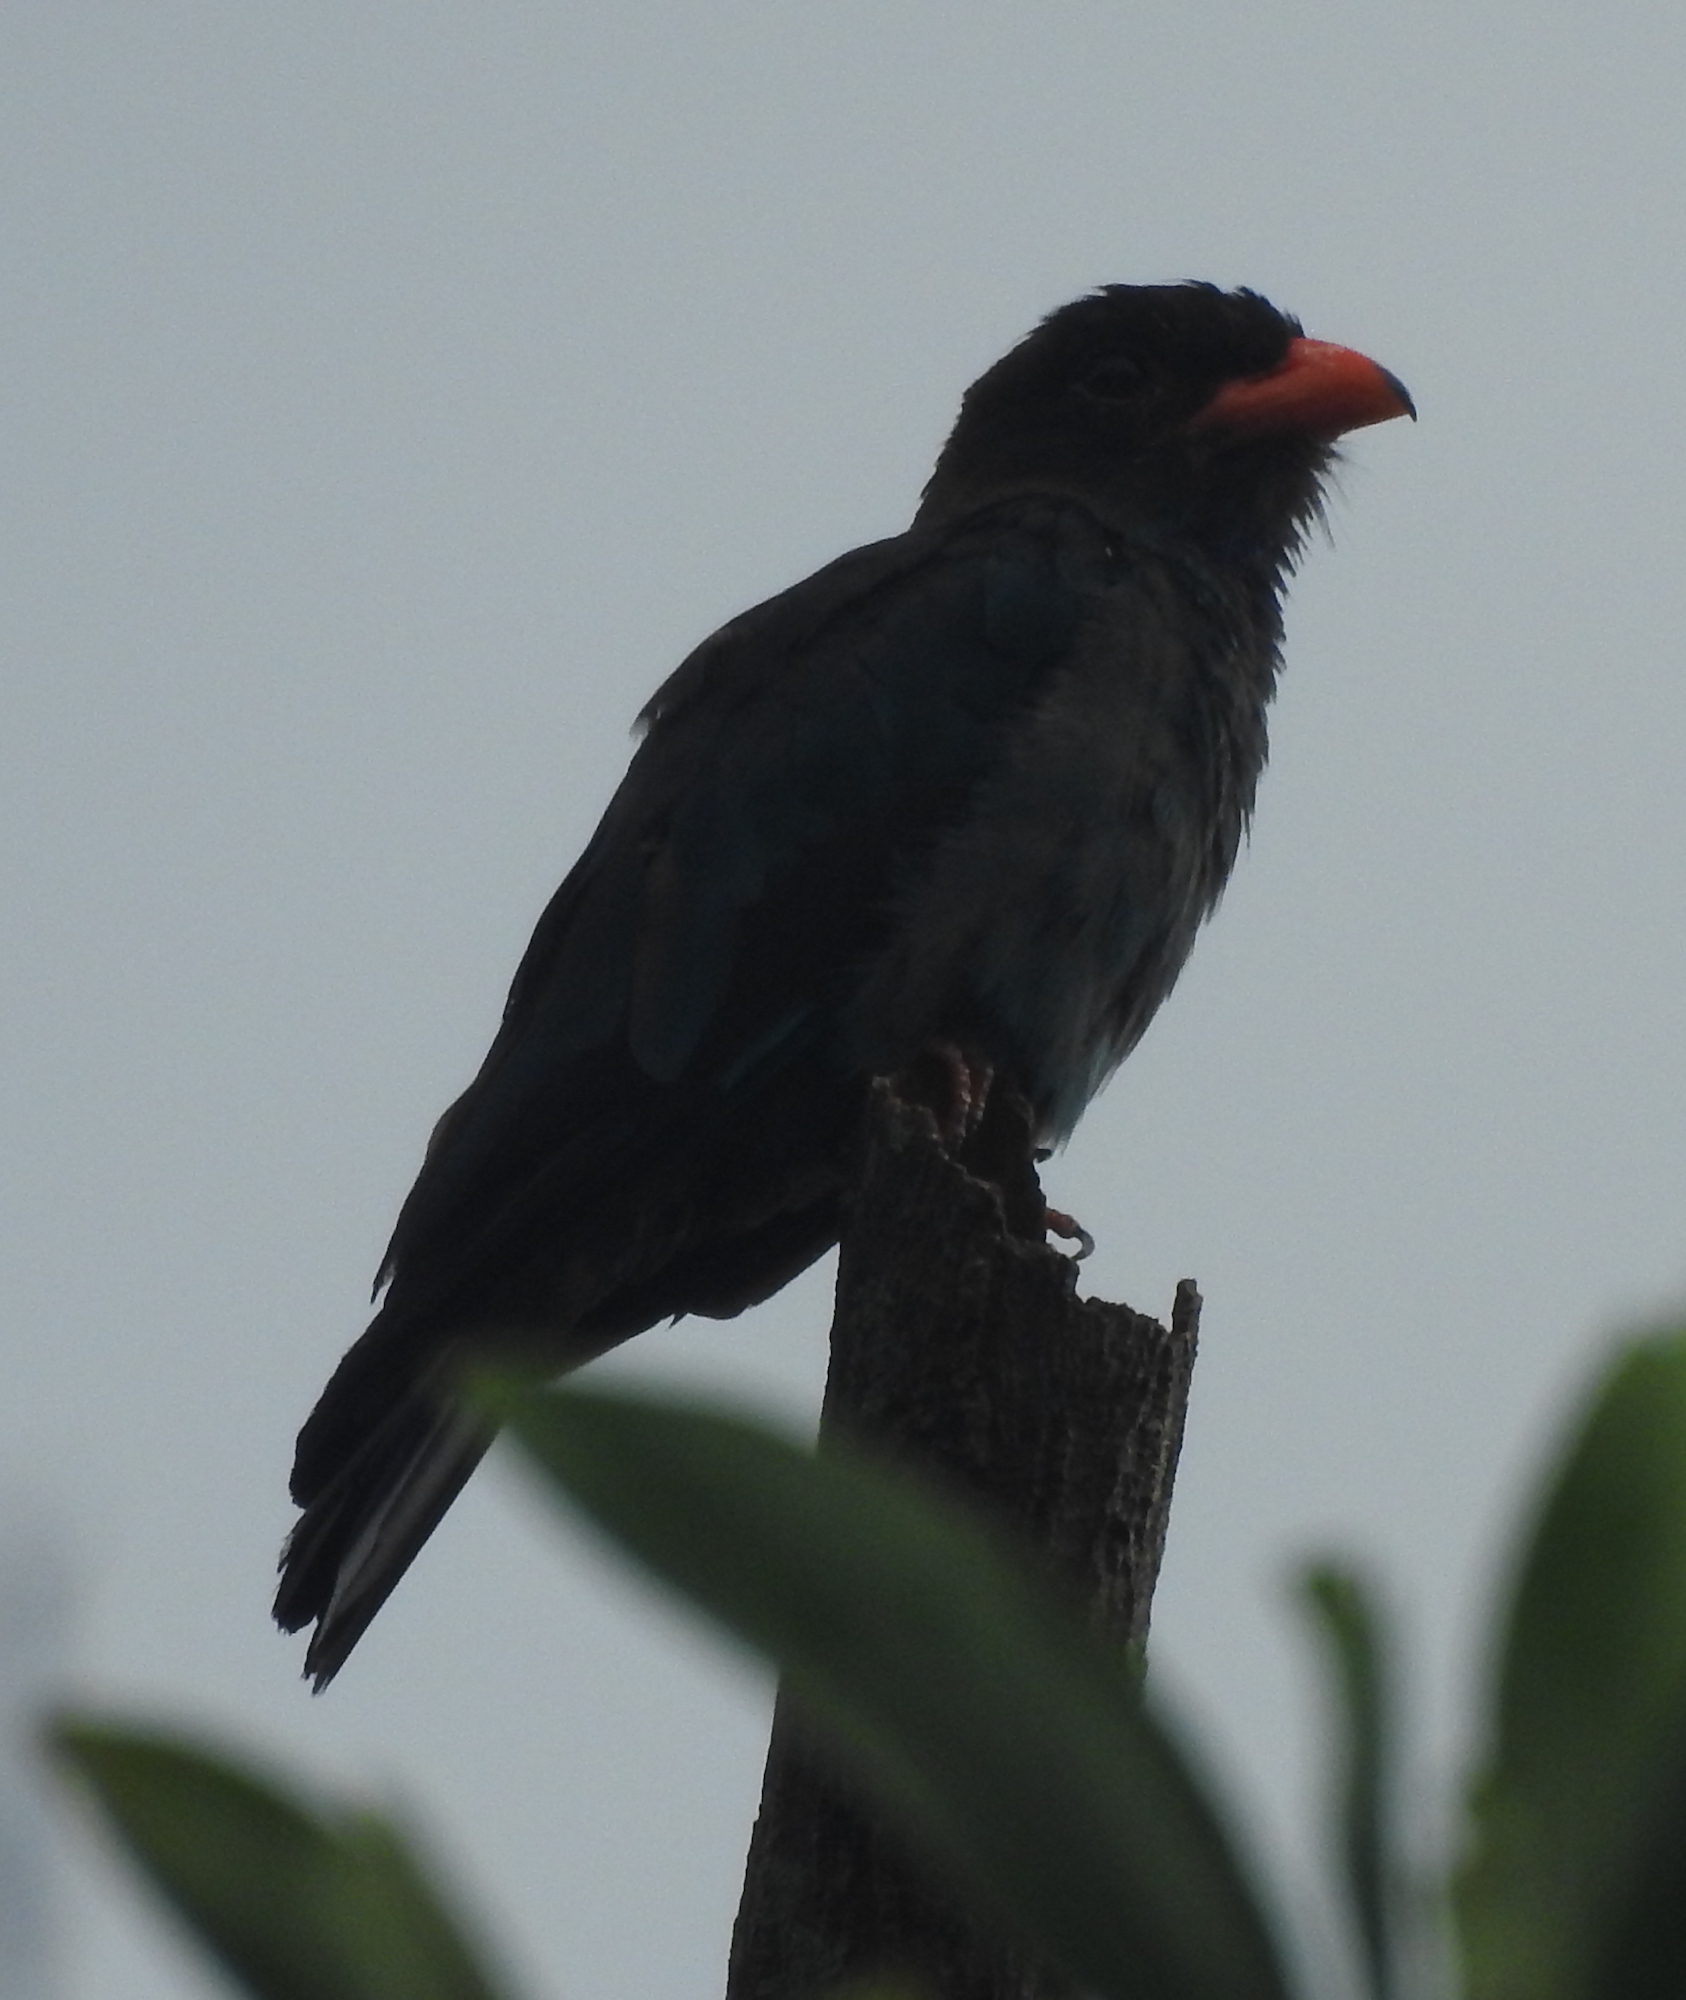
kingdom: Animalia
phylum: Chordata
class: Aves
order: Coraciiformes
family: Coraciidae
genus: Eurystomus
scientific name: Eurystomus orientalis
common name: Oriental dollarbird
